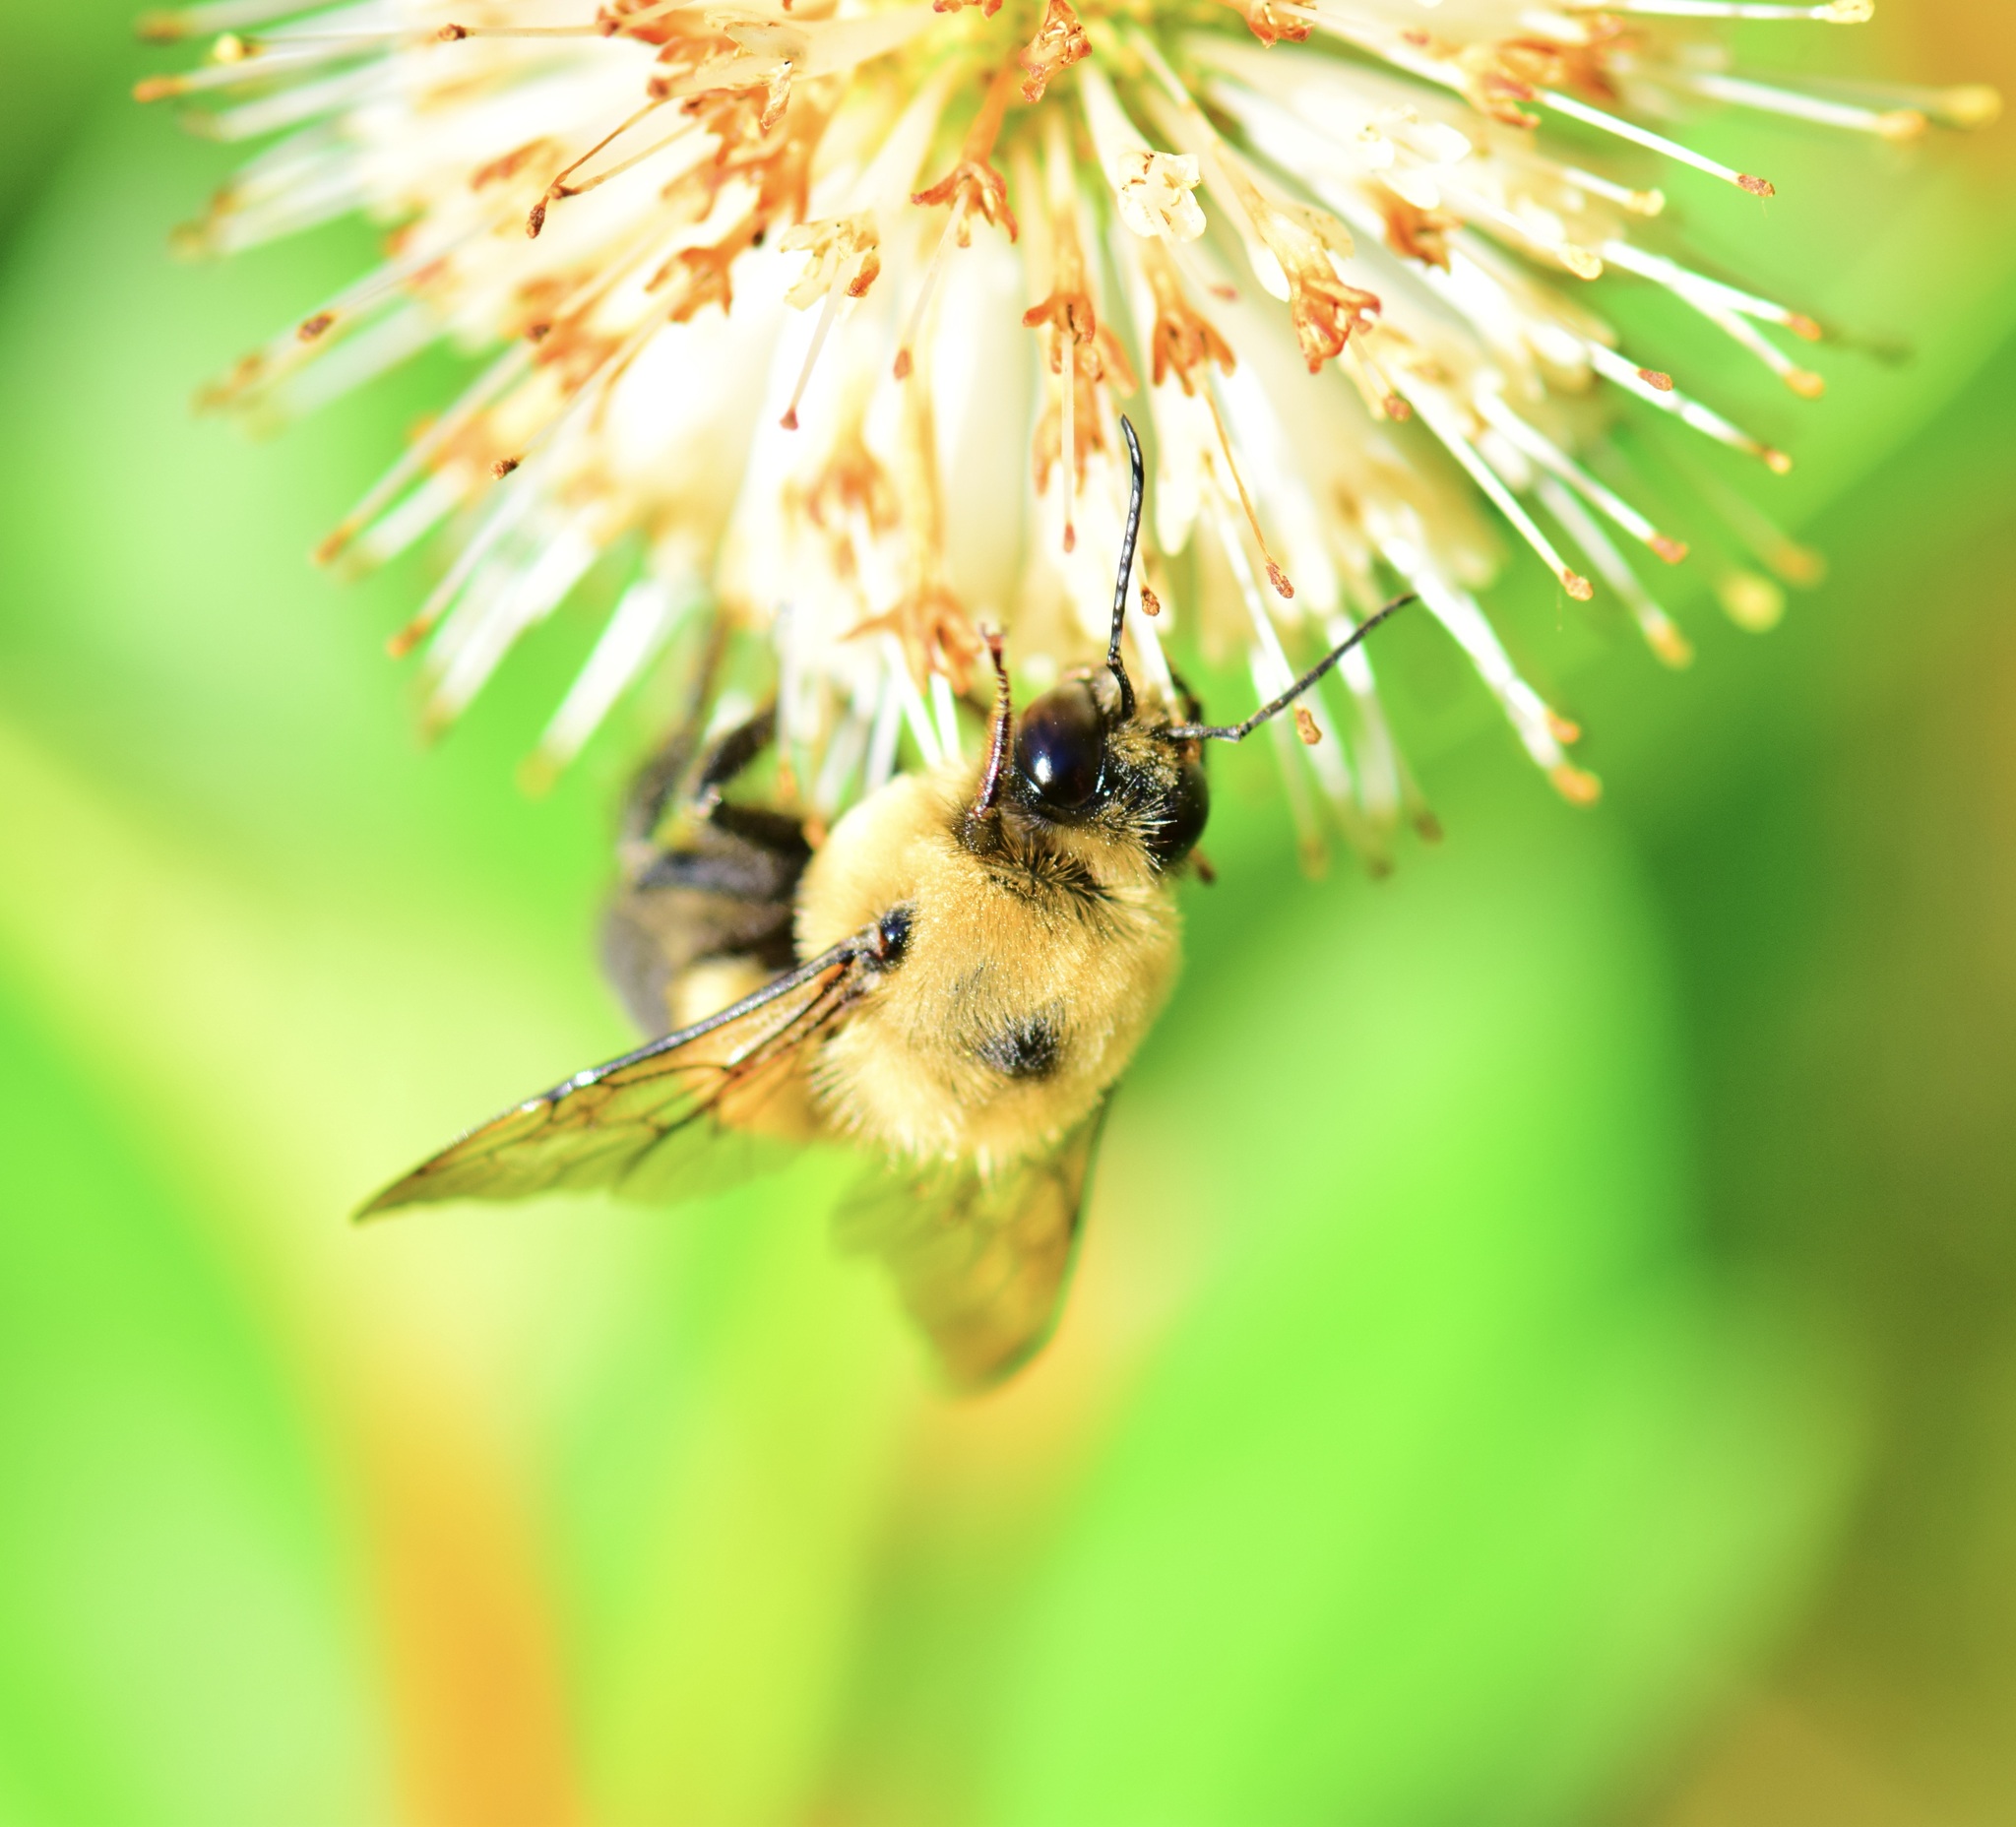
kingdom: Animalia
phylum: Arthropoda
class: Insecta
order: Hymenoptera
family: Apidae
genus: Bombus
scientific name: Bombus griseocollis
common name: Brown-belted bumble bee
